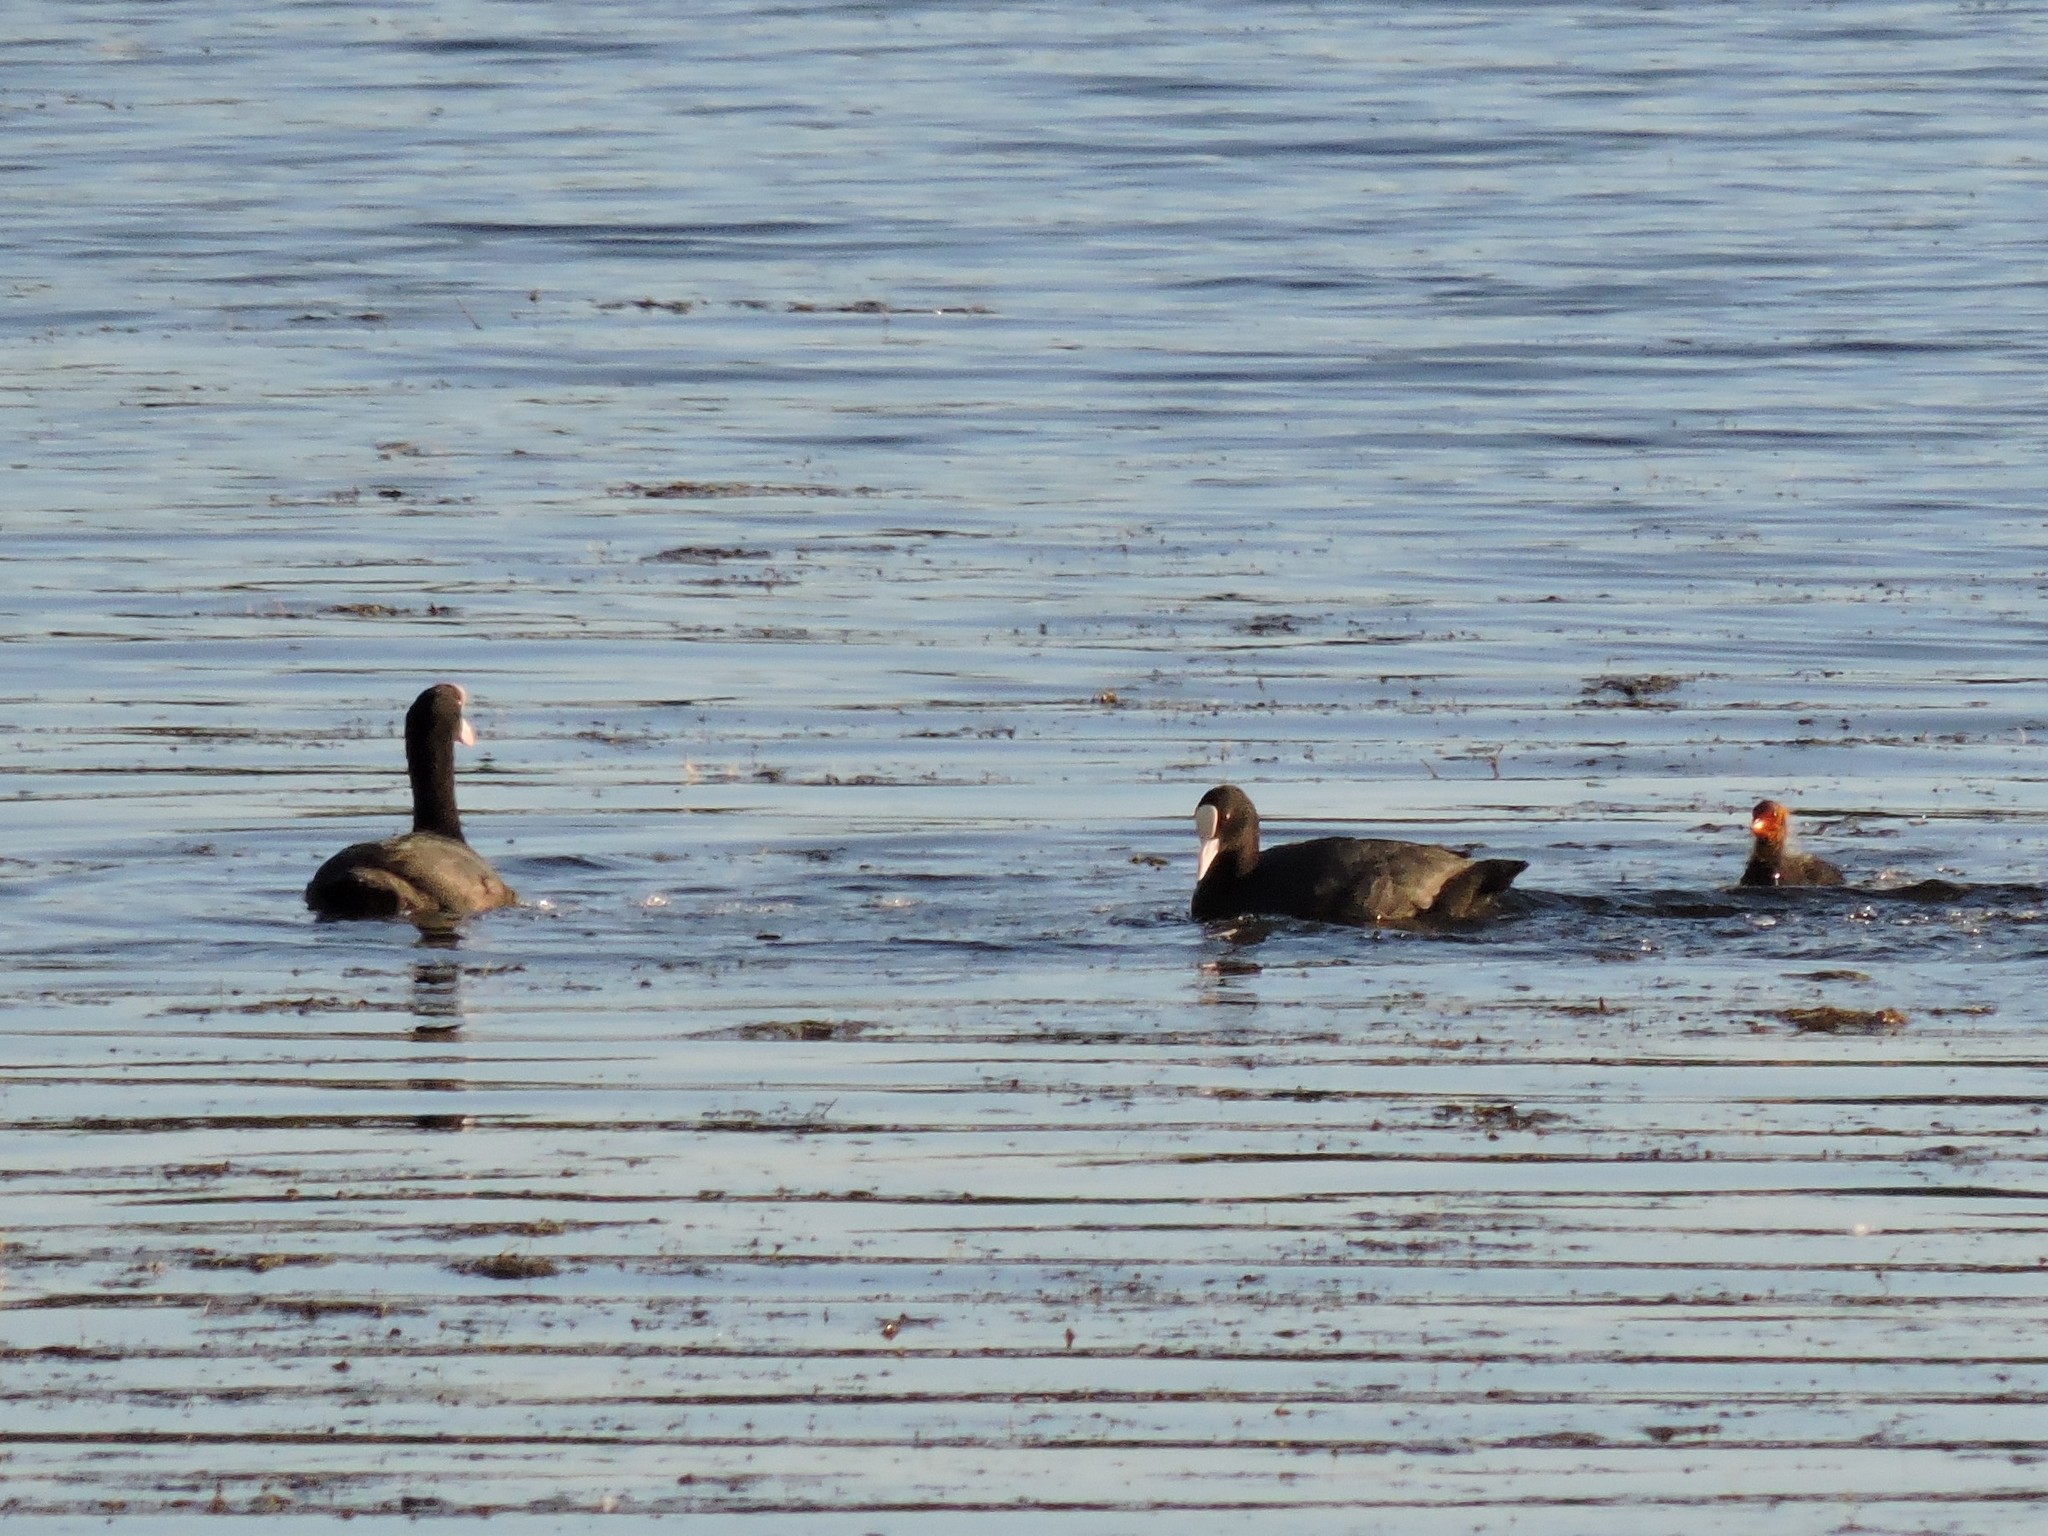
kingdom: Animalia
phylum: Chordata
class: Aves
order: Gruiformes
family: Rallidae
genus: Fulica
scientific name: Fulica atra
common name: Eurasian coot
